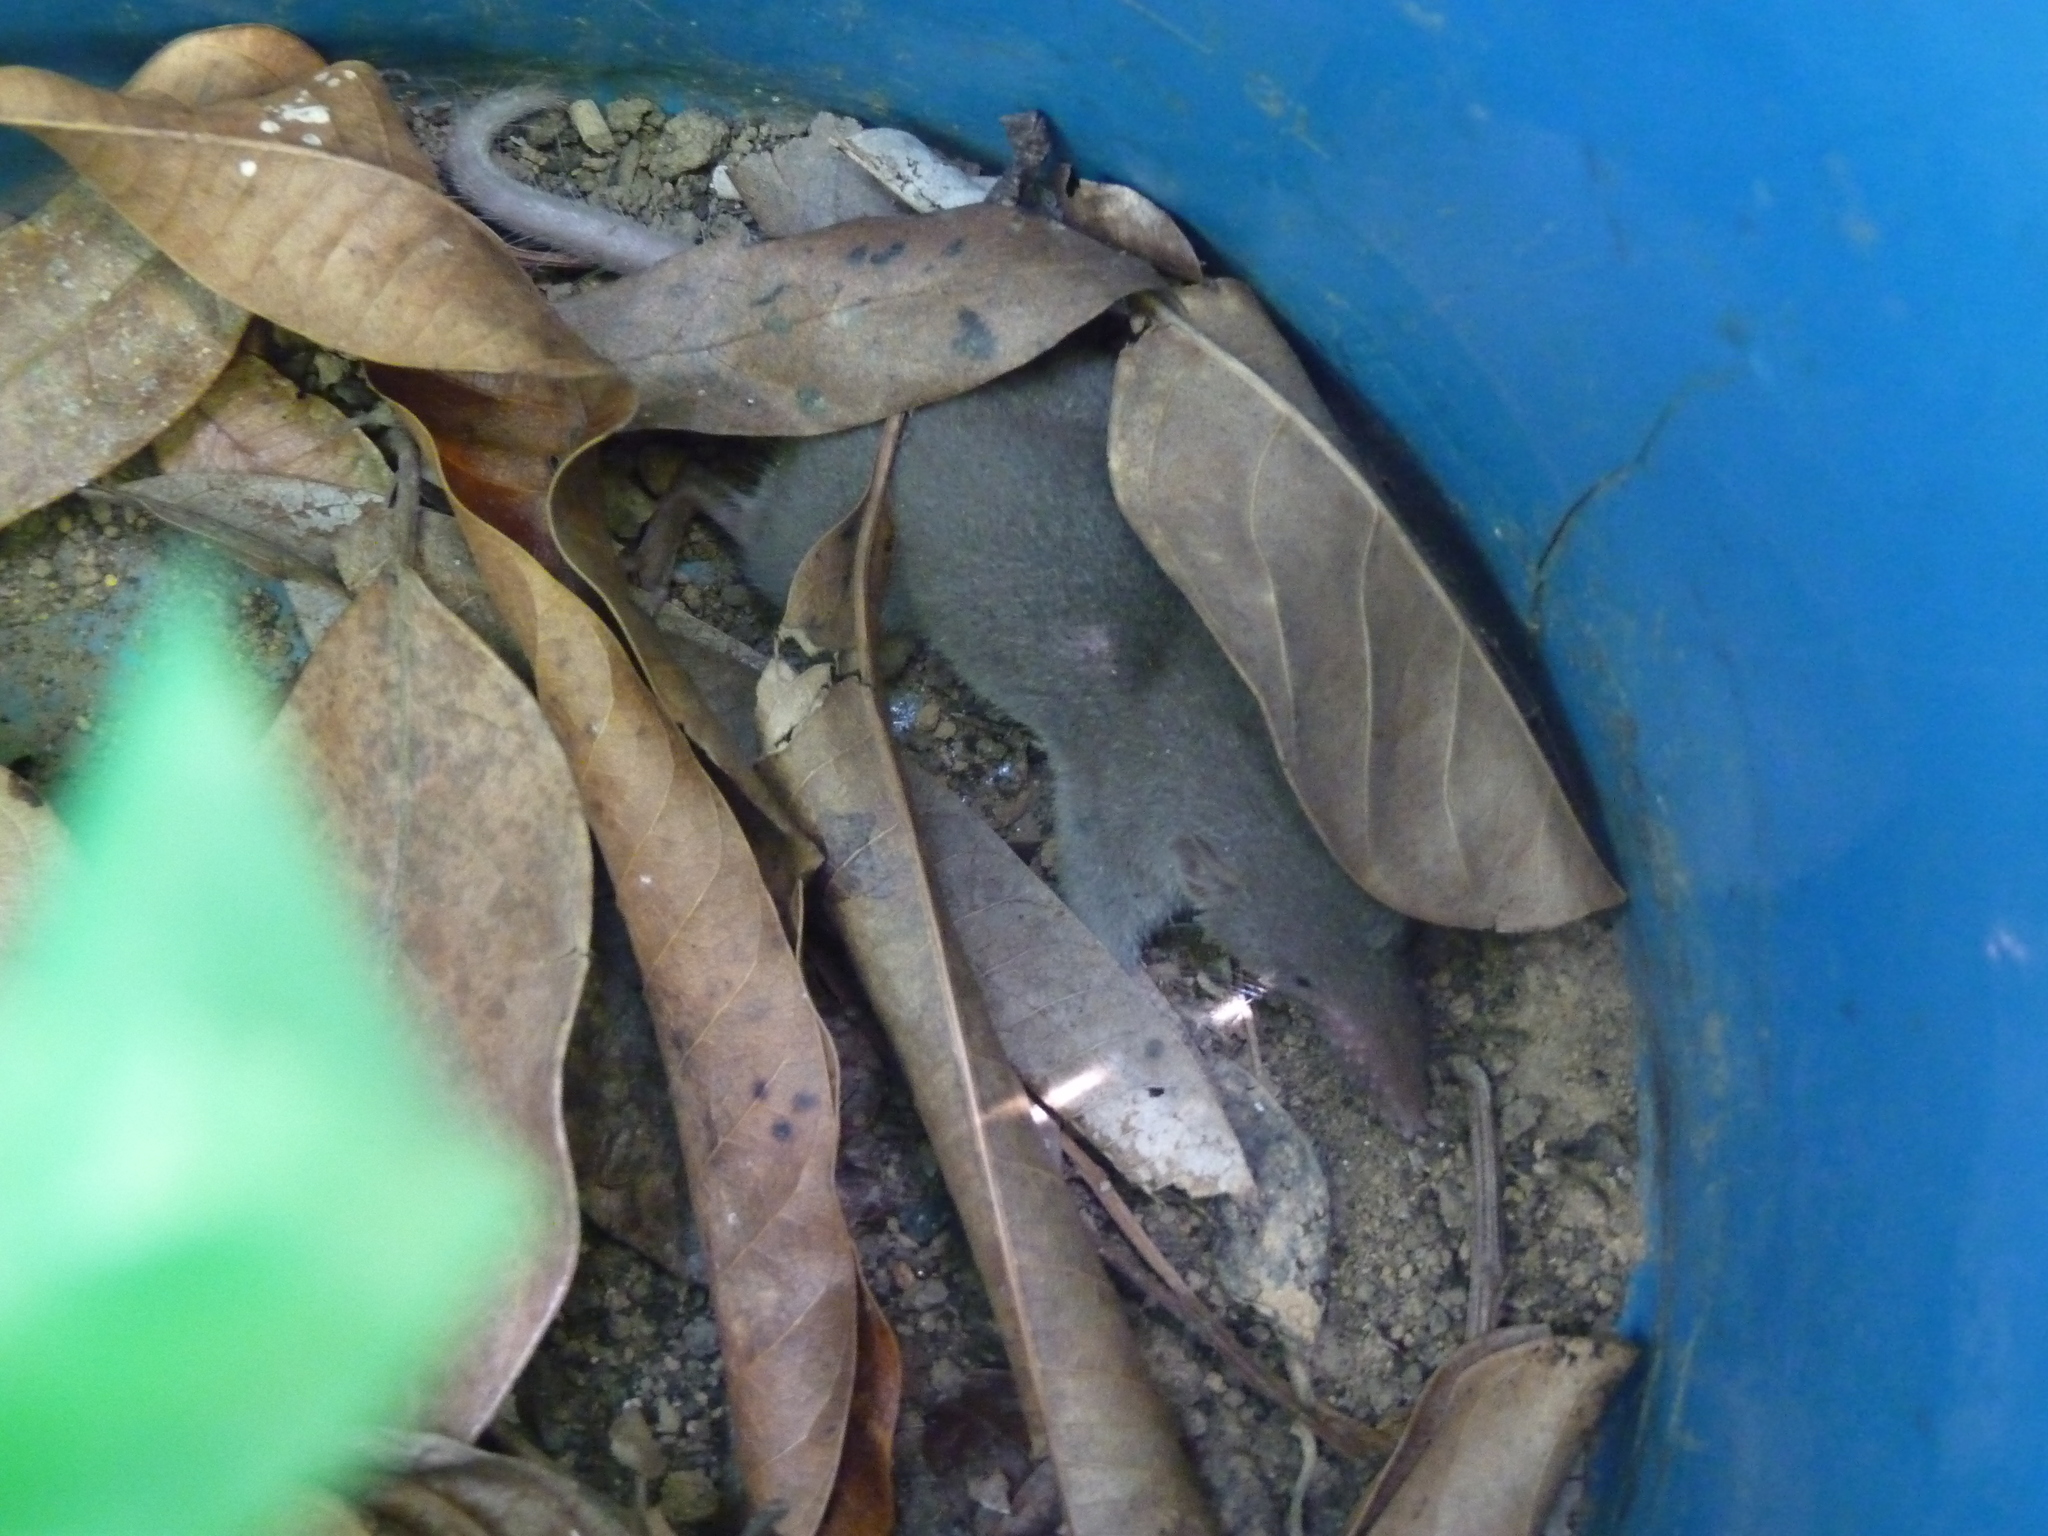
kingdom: Animalia
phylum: Chordata
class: Mammalia
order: Soricomorpha
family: Soricidae
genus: Suncus
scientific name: Suncus murinus
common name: Asian house shrew
